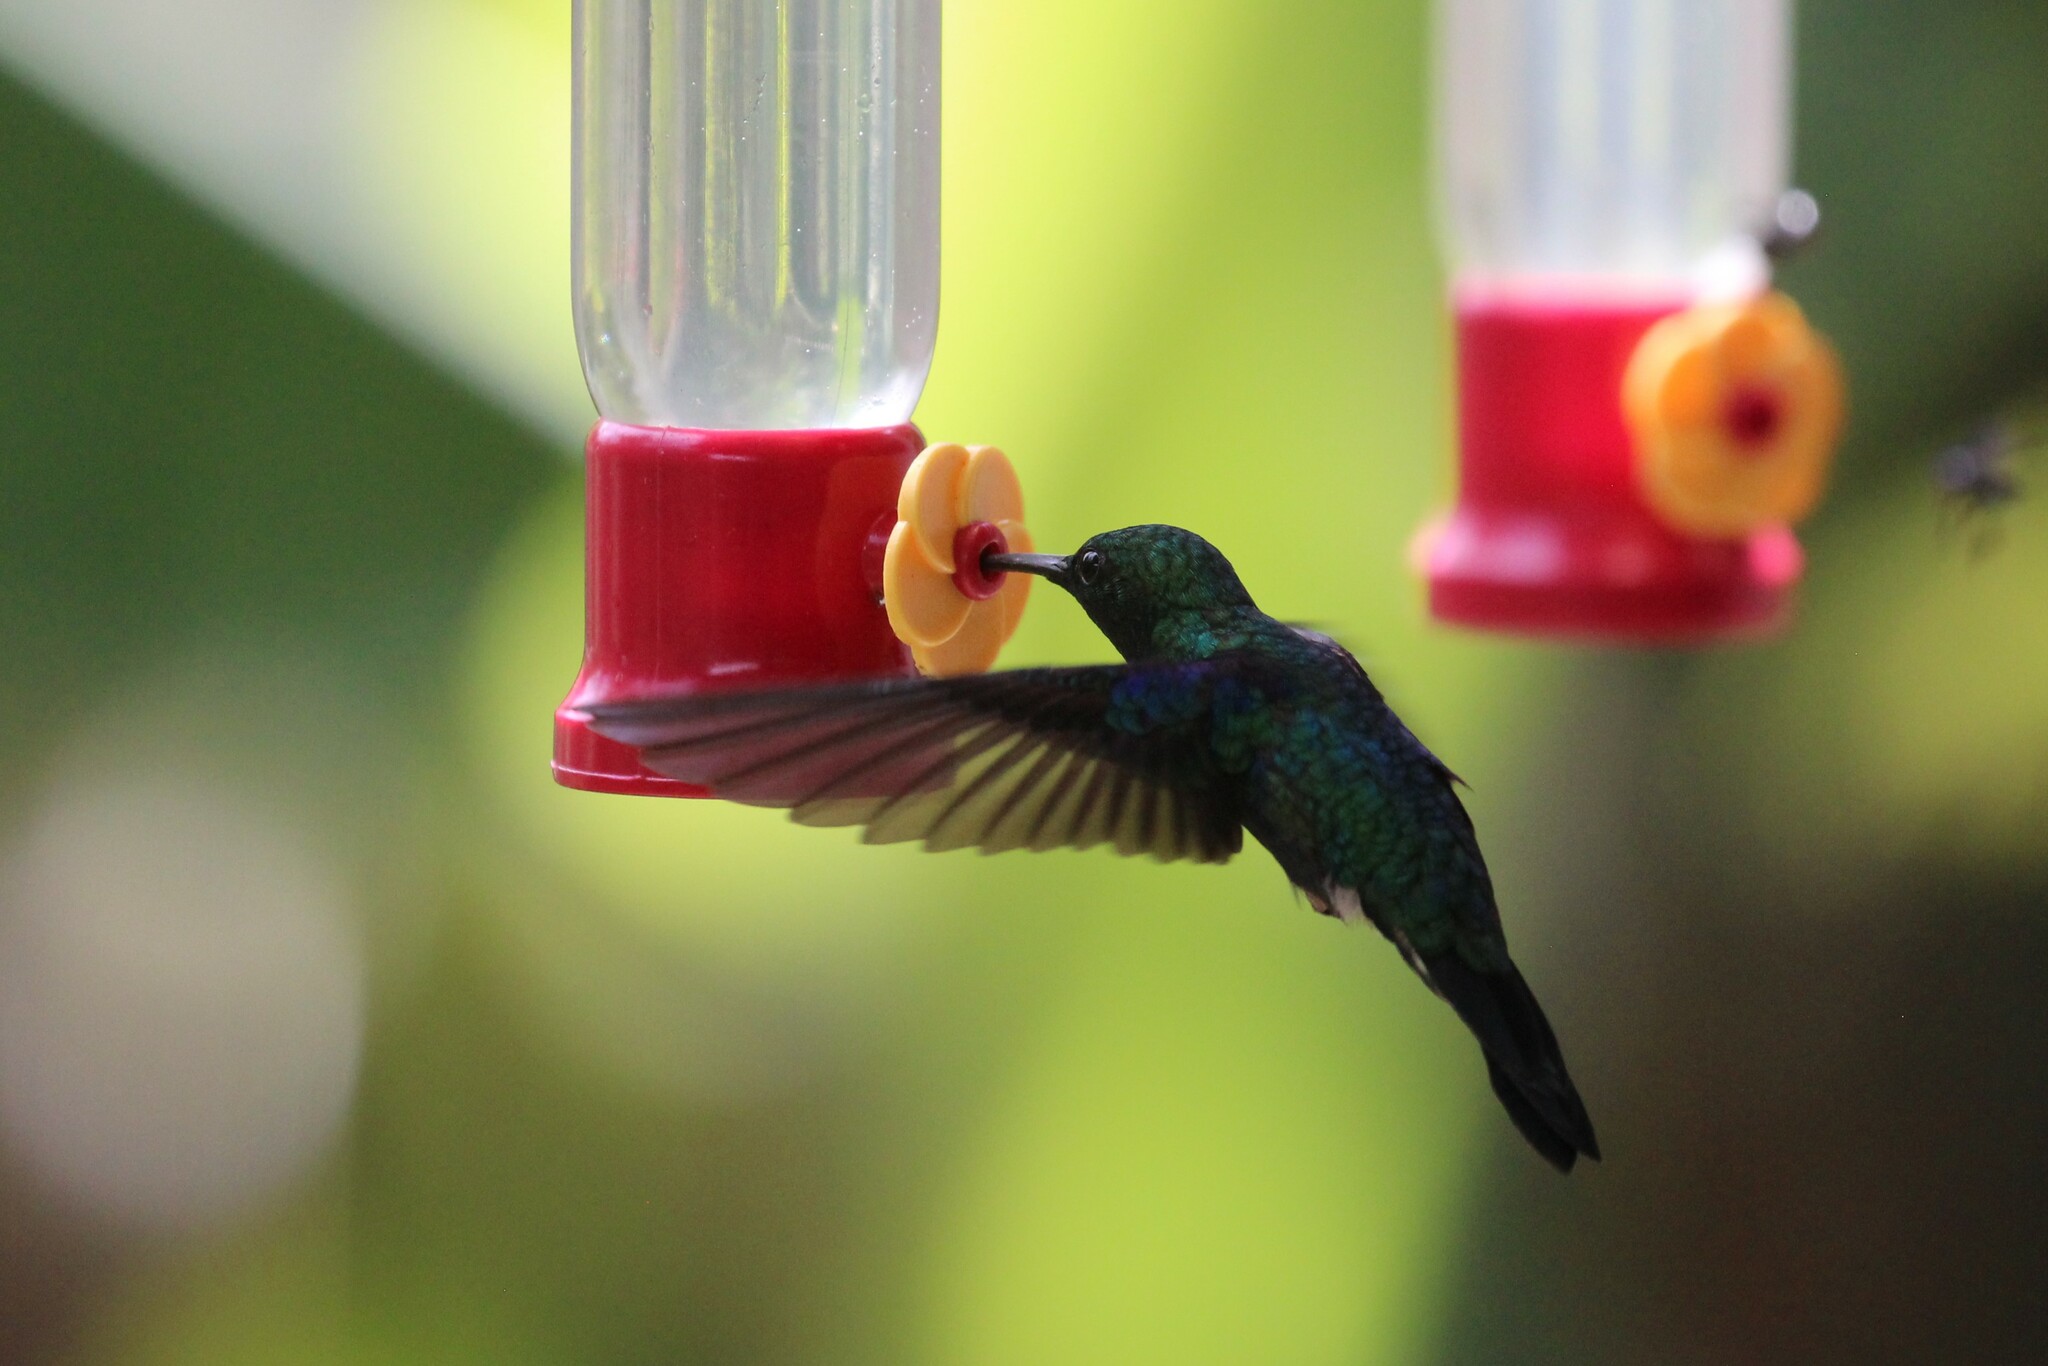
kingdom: Animalia
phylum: Chordata
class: Aves
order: Apodiformes
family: Trochilidae
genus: Thalurania
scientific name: Thalurania colombica
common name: Crowned woodnymph
